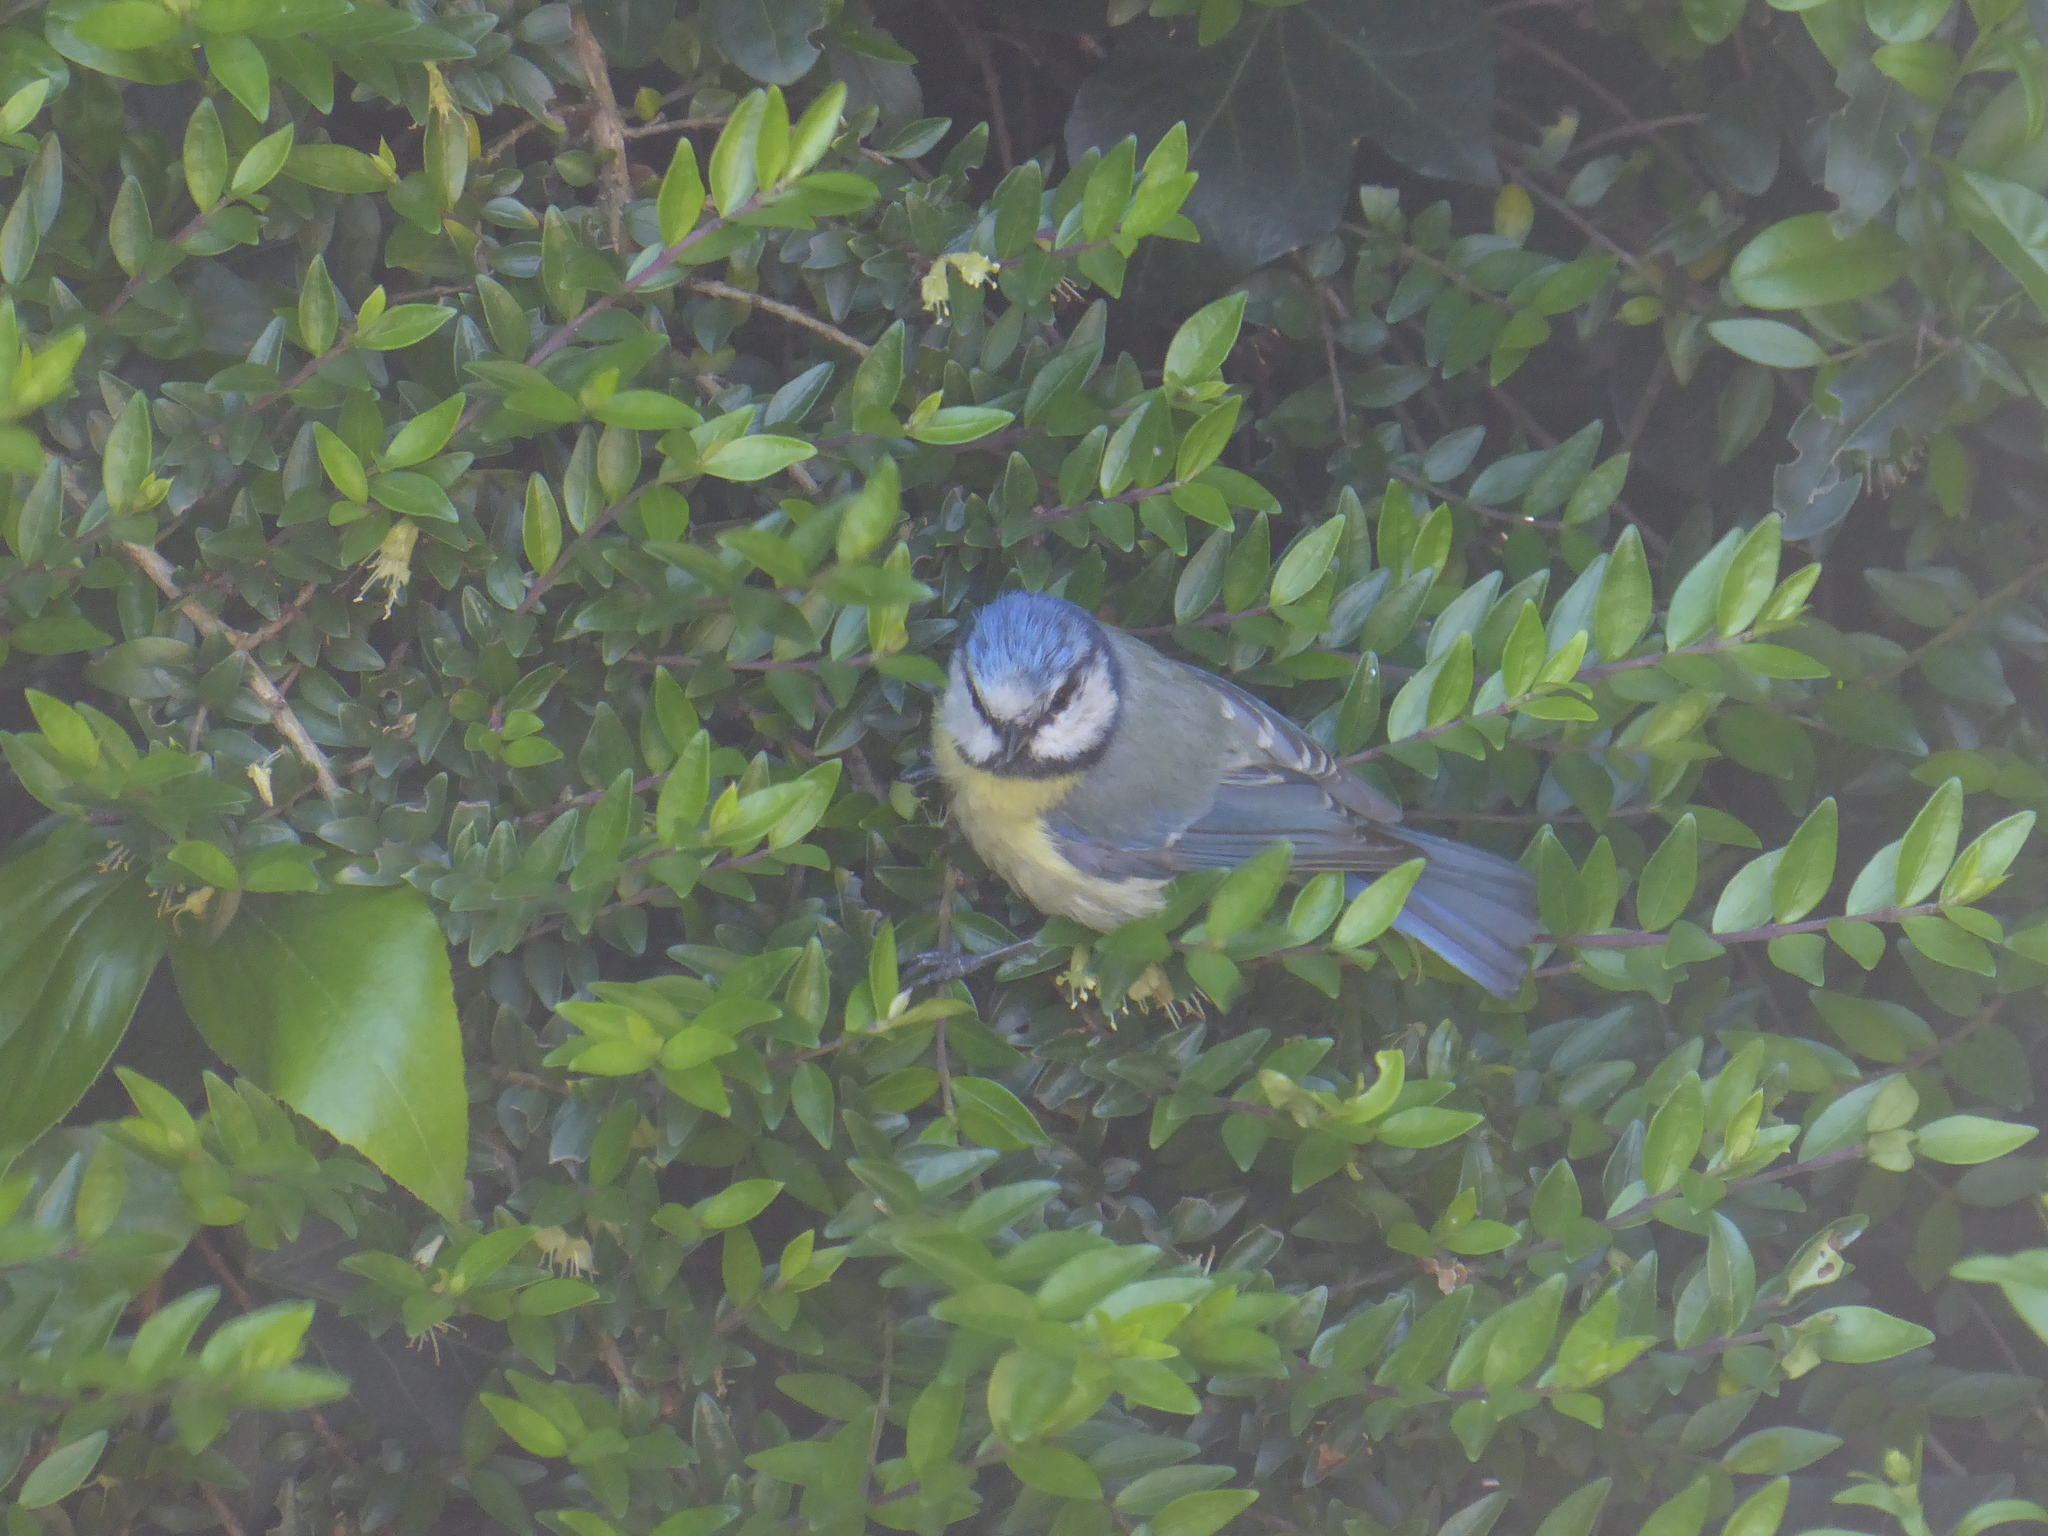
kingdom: Animalia
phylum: Chordata
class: Aves
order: Passeriformes
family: Paridae
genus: Cyanistes
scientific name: Cyanistes caeruleus
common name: Eurasian blue tit
